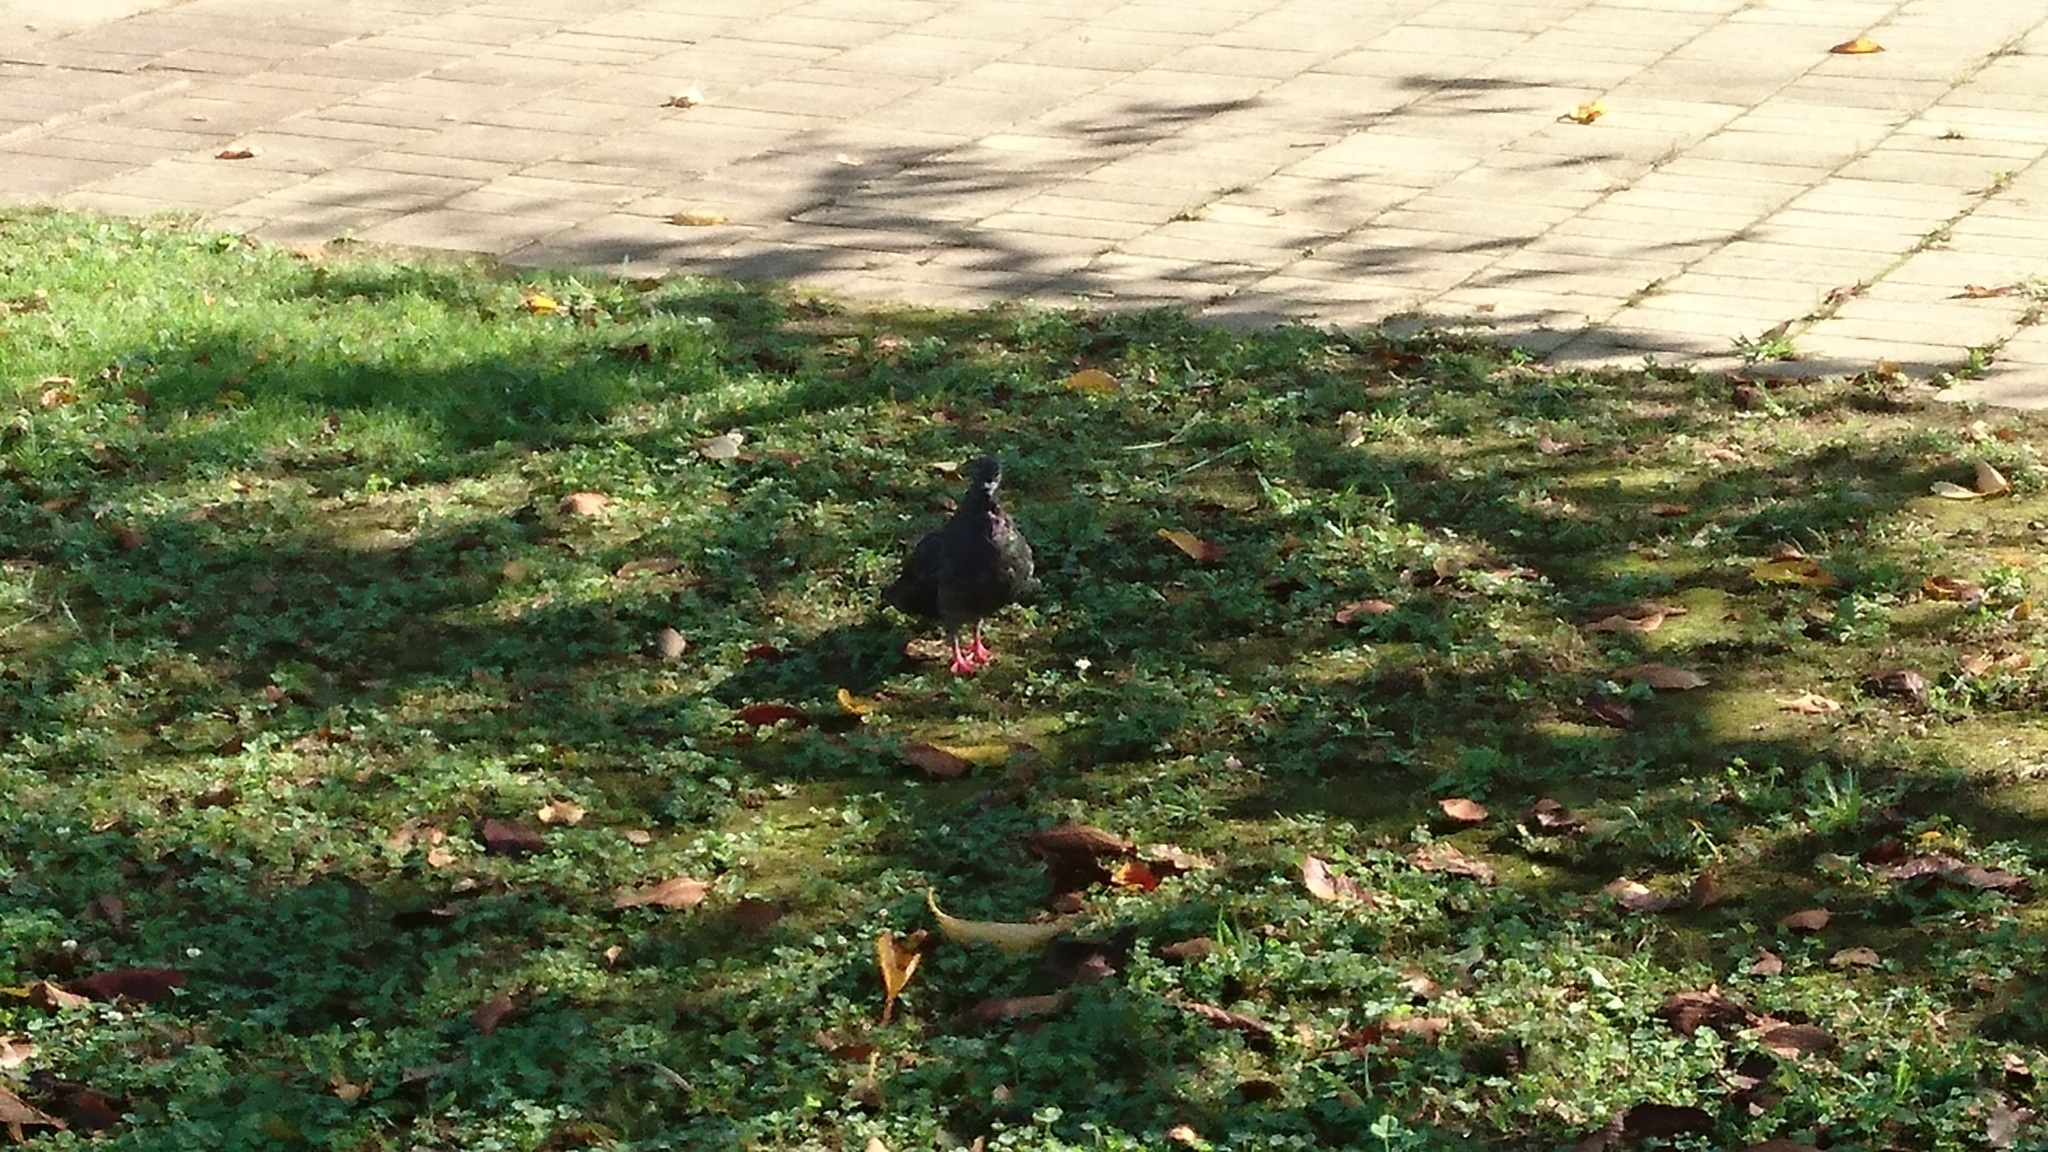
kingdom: Animalia
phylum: Chordata
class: Aves
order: Columbiformes
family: Columbidae
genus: Columba
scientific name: Columba livia
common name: Rock pigeon
